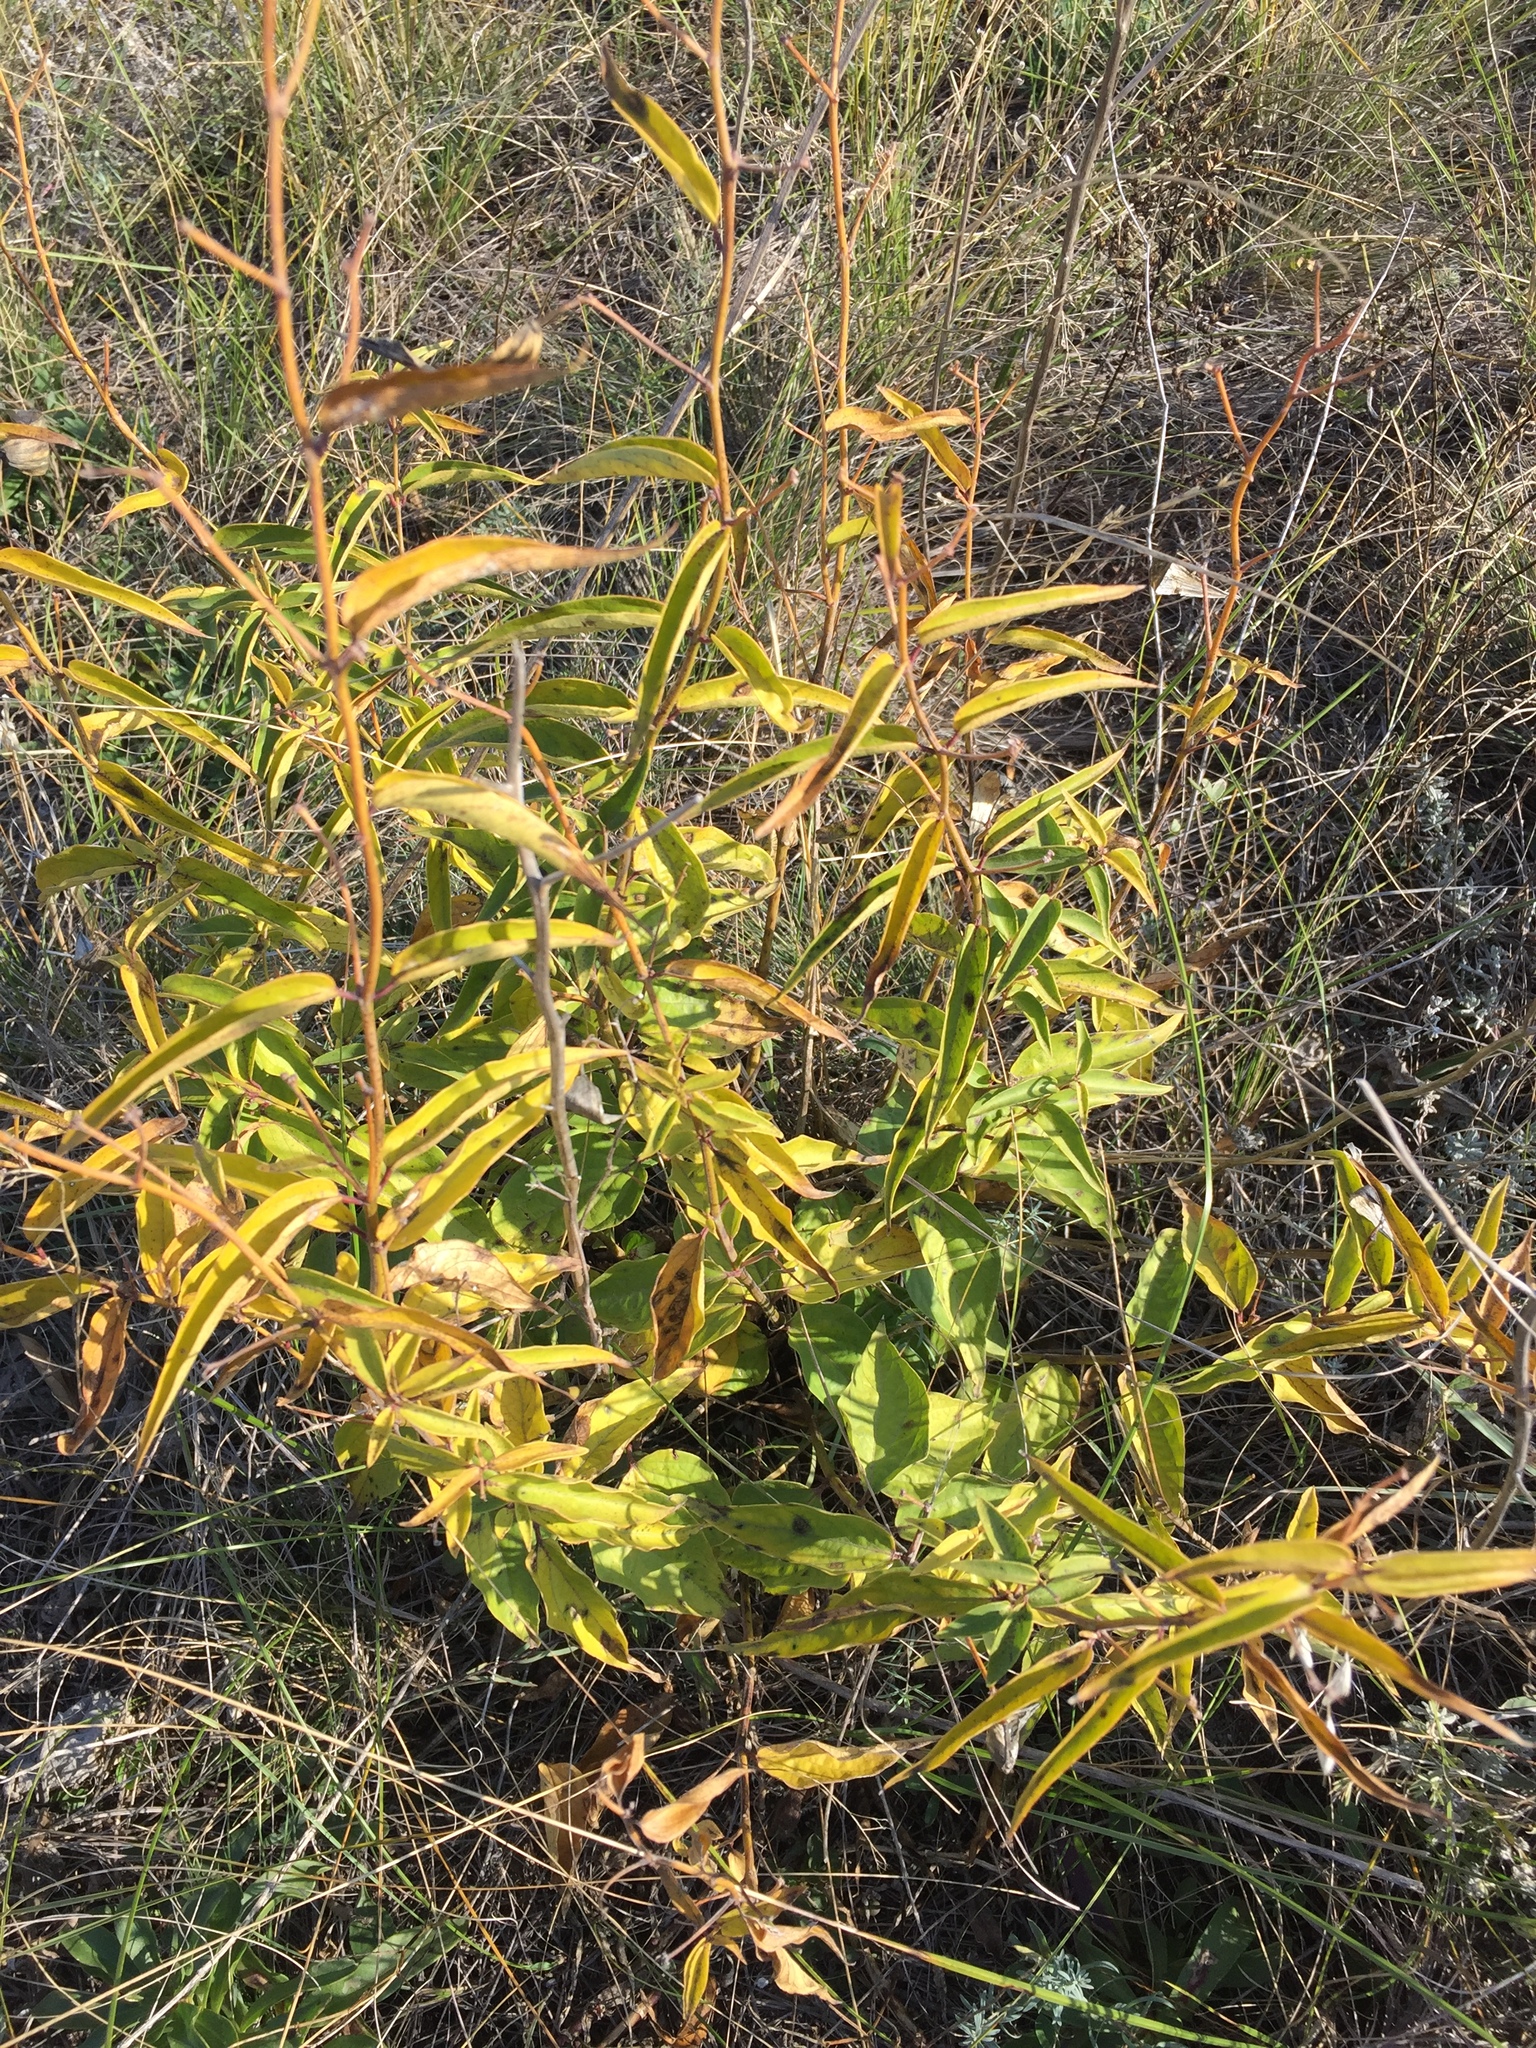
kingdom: Plantae
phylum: Tracheophyta
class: Magnoliopsida
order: Gentianales
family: Apocynaceae
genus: Vincetoxicum
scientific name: Vincetoxicum hirundinaria
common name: White swallowwort
